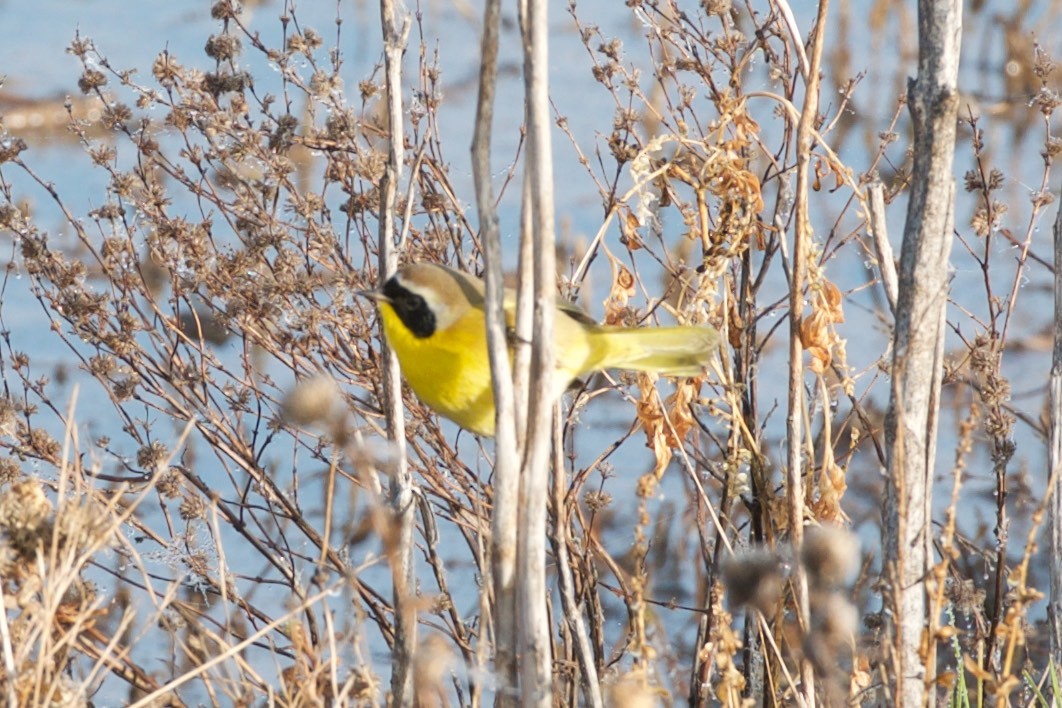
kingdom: Animalia
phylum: Chordata
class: Aves
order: Passeriformes
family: Parulidae
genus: Geothlypis
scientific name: Geothlypis trichas
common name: Common yellowthroat
